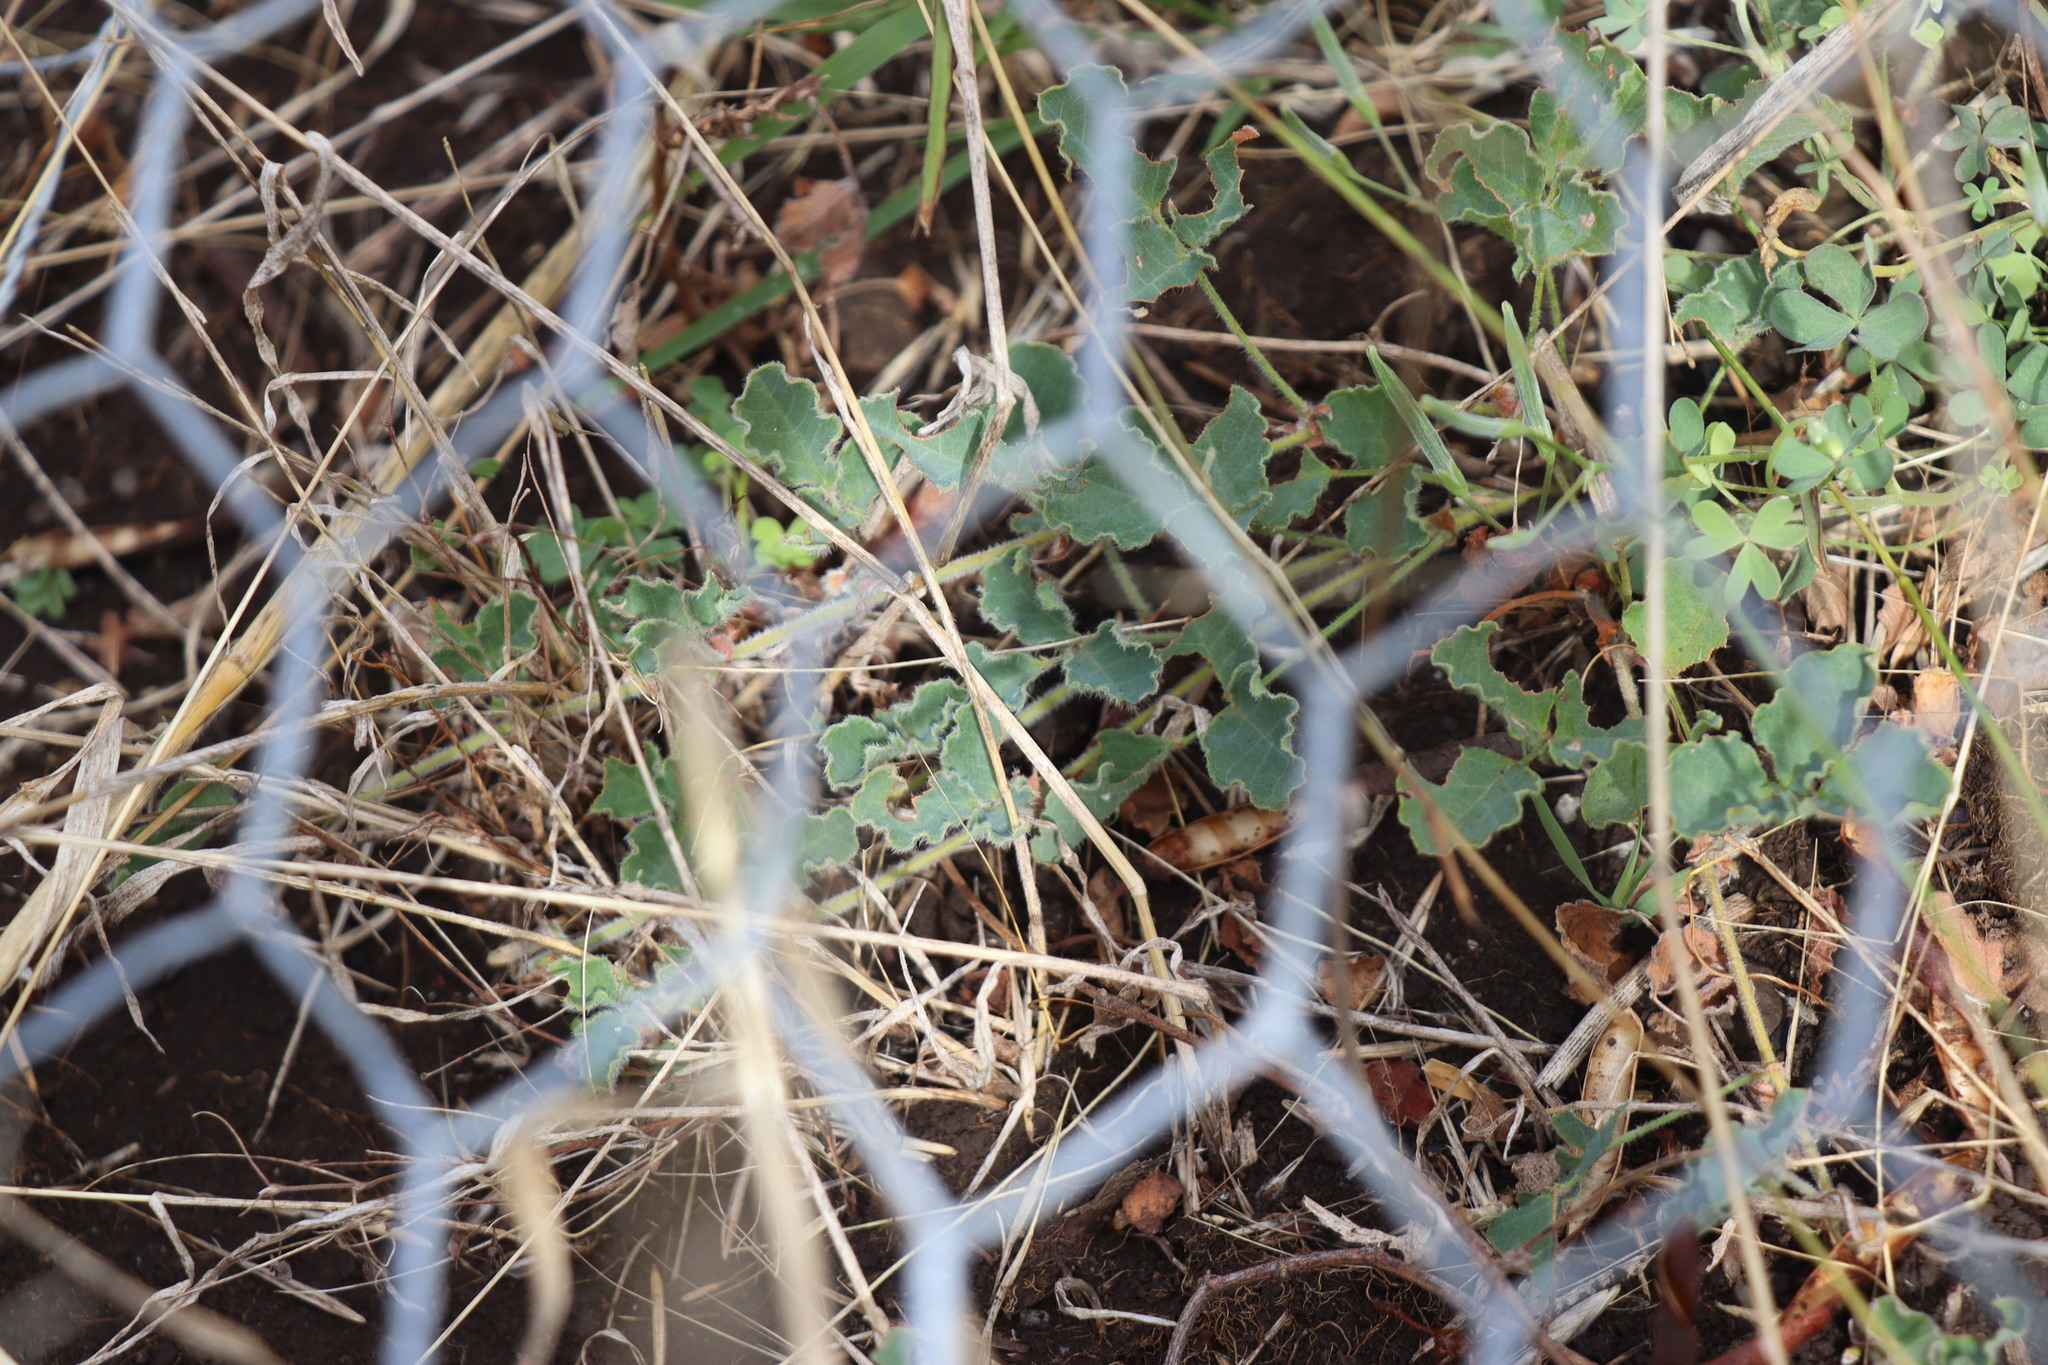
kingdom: Plantae
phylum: Tracheophyta
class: Magnoliopsida
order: Fabales
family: Fabaceae
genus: Kennedia
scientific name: Kennedia prostrata
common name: Running-postman
